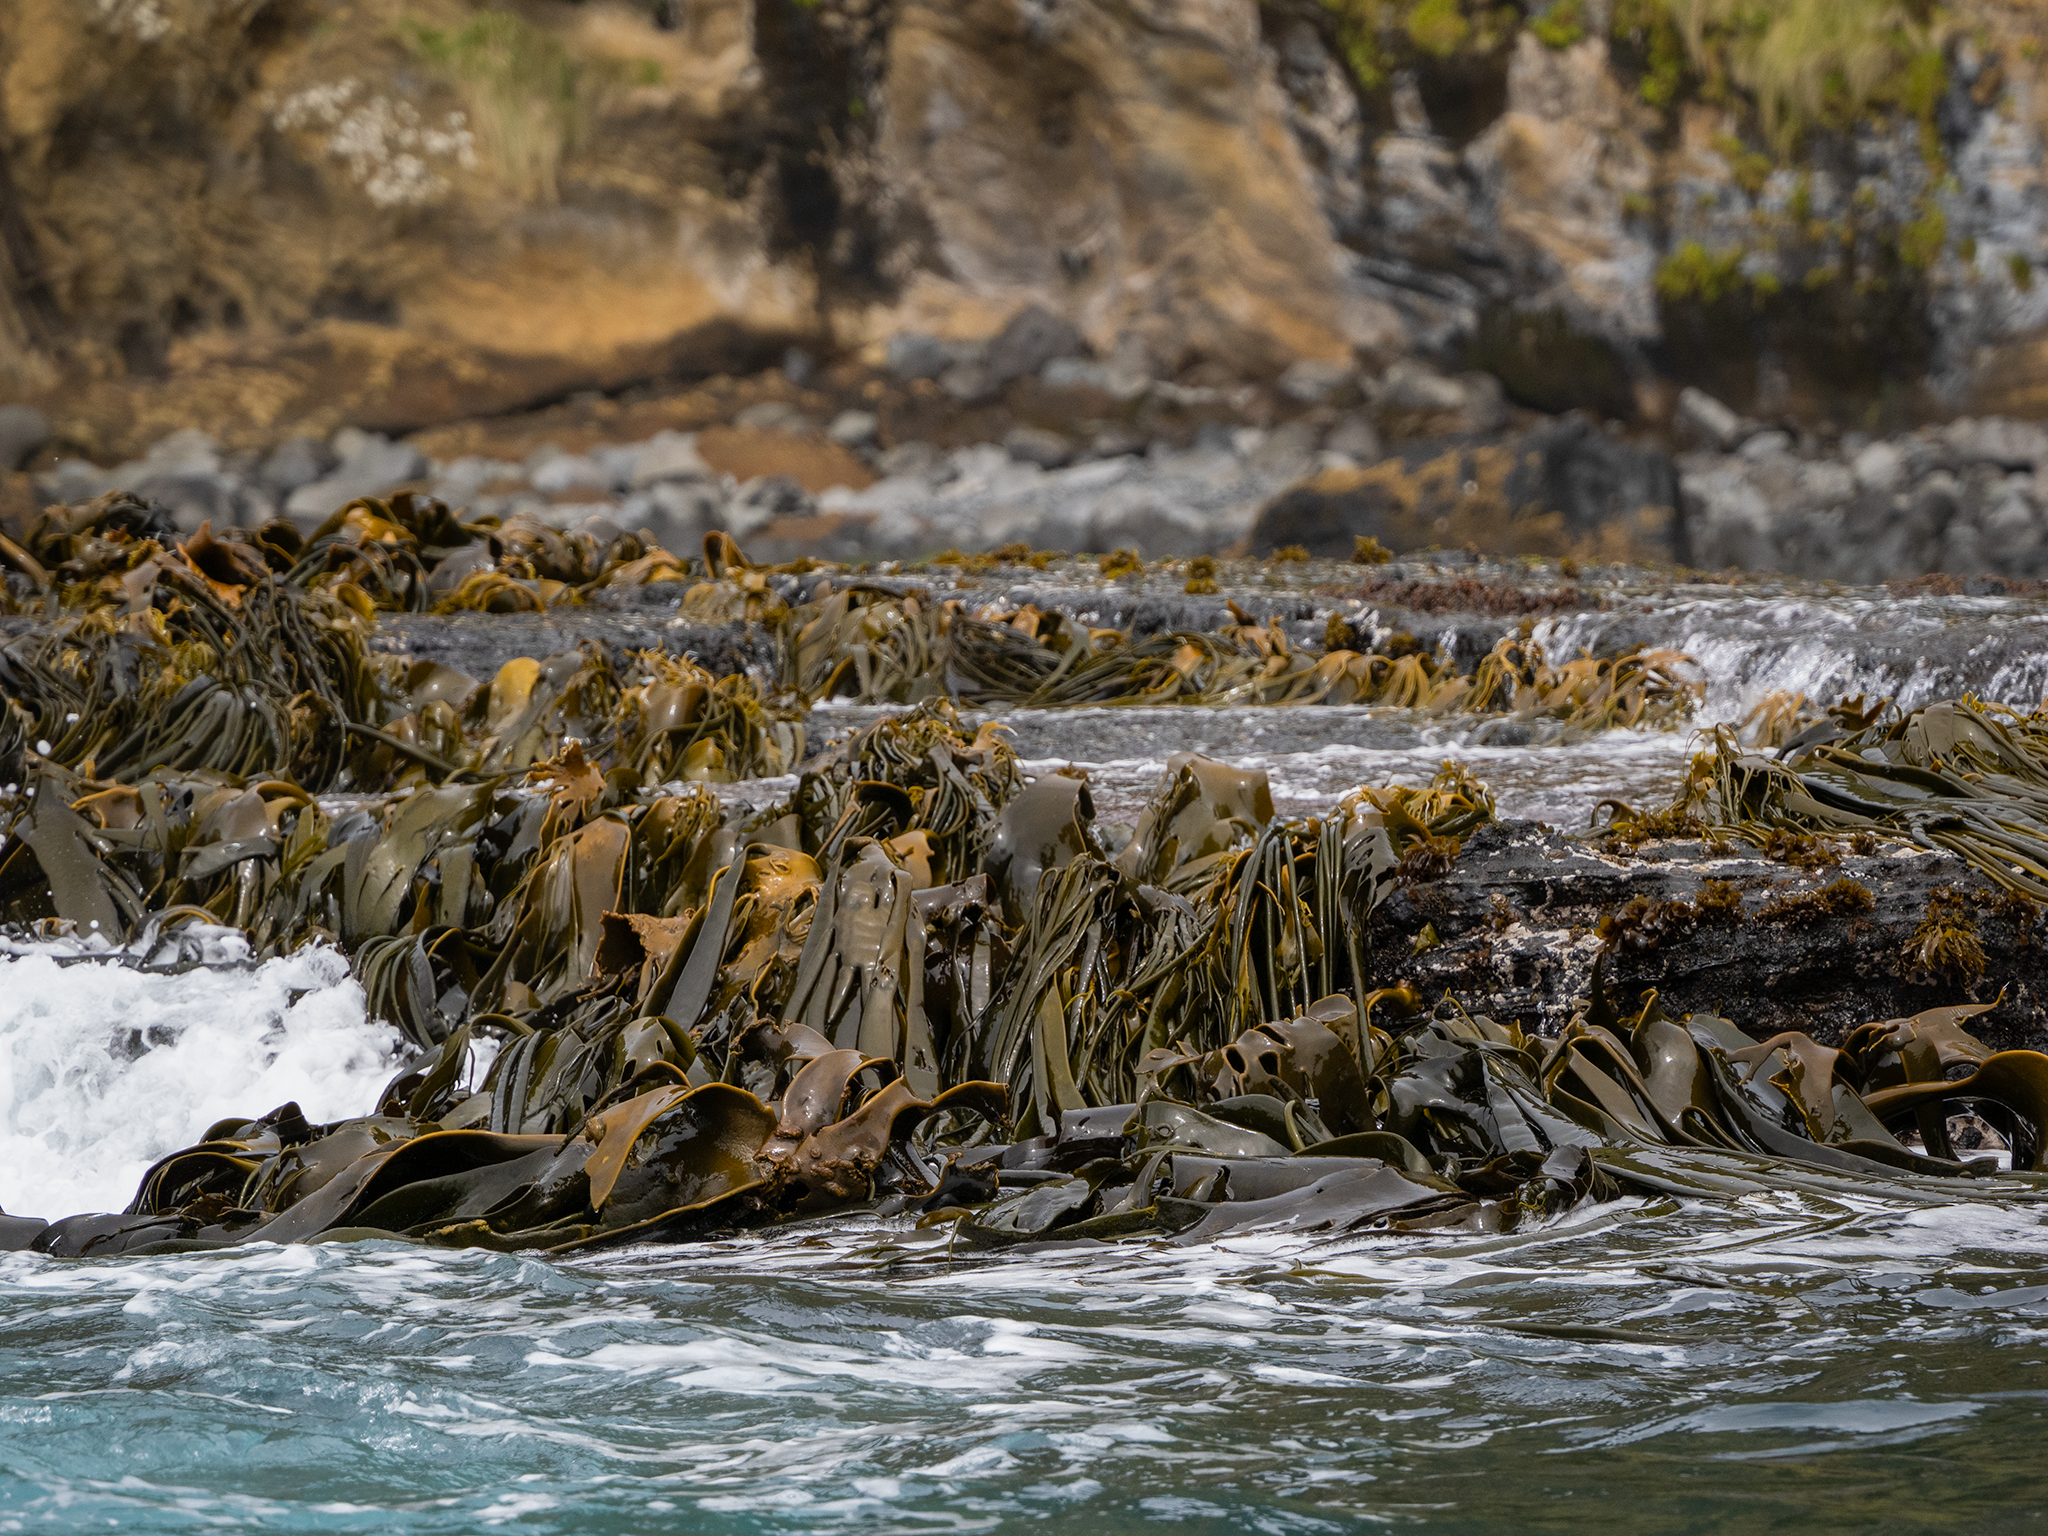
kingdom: Chromista
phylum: Ochrophyta
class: Phaeophyceae
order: Fucales
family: Durvillaeaceae
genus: Durvillaea
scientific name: Durvillaea
